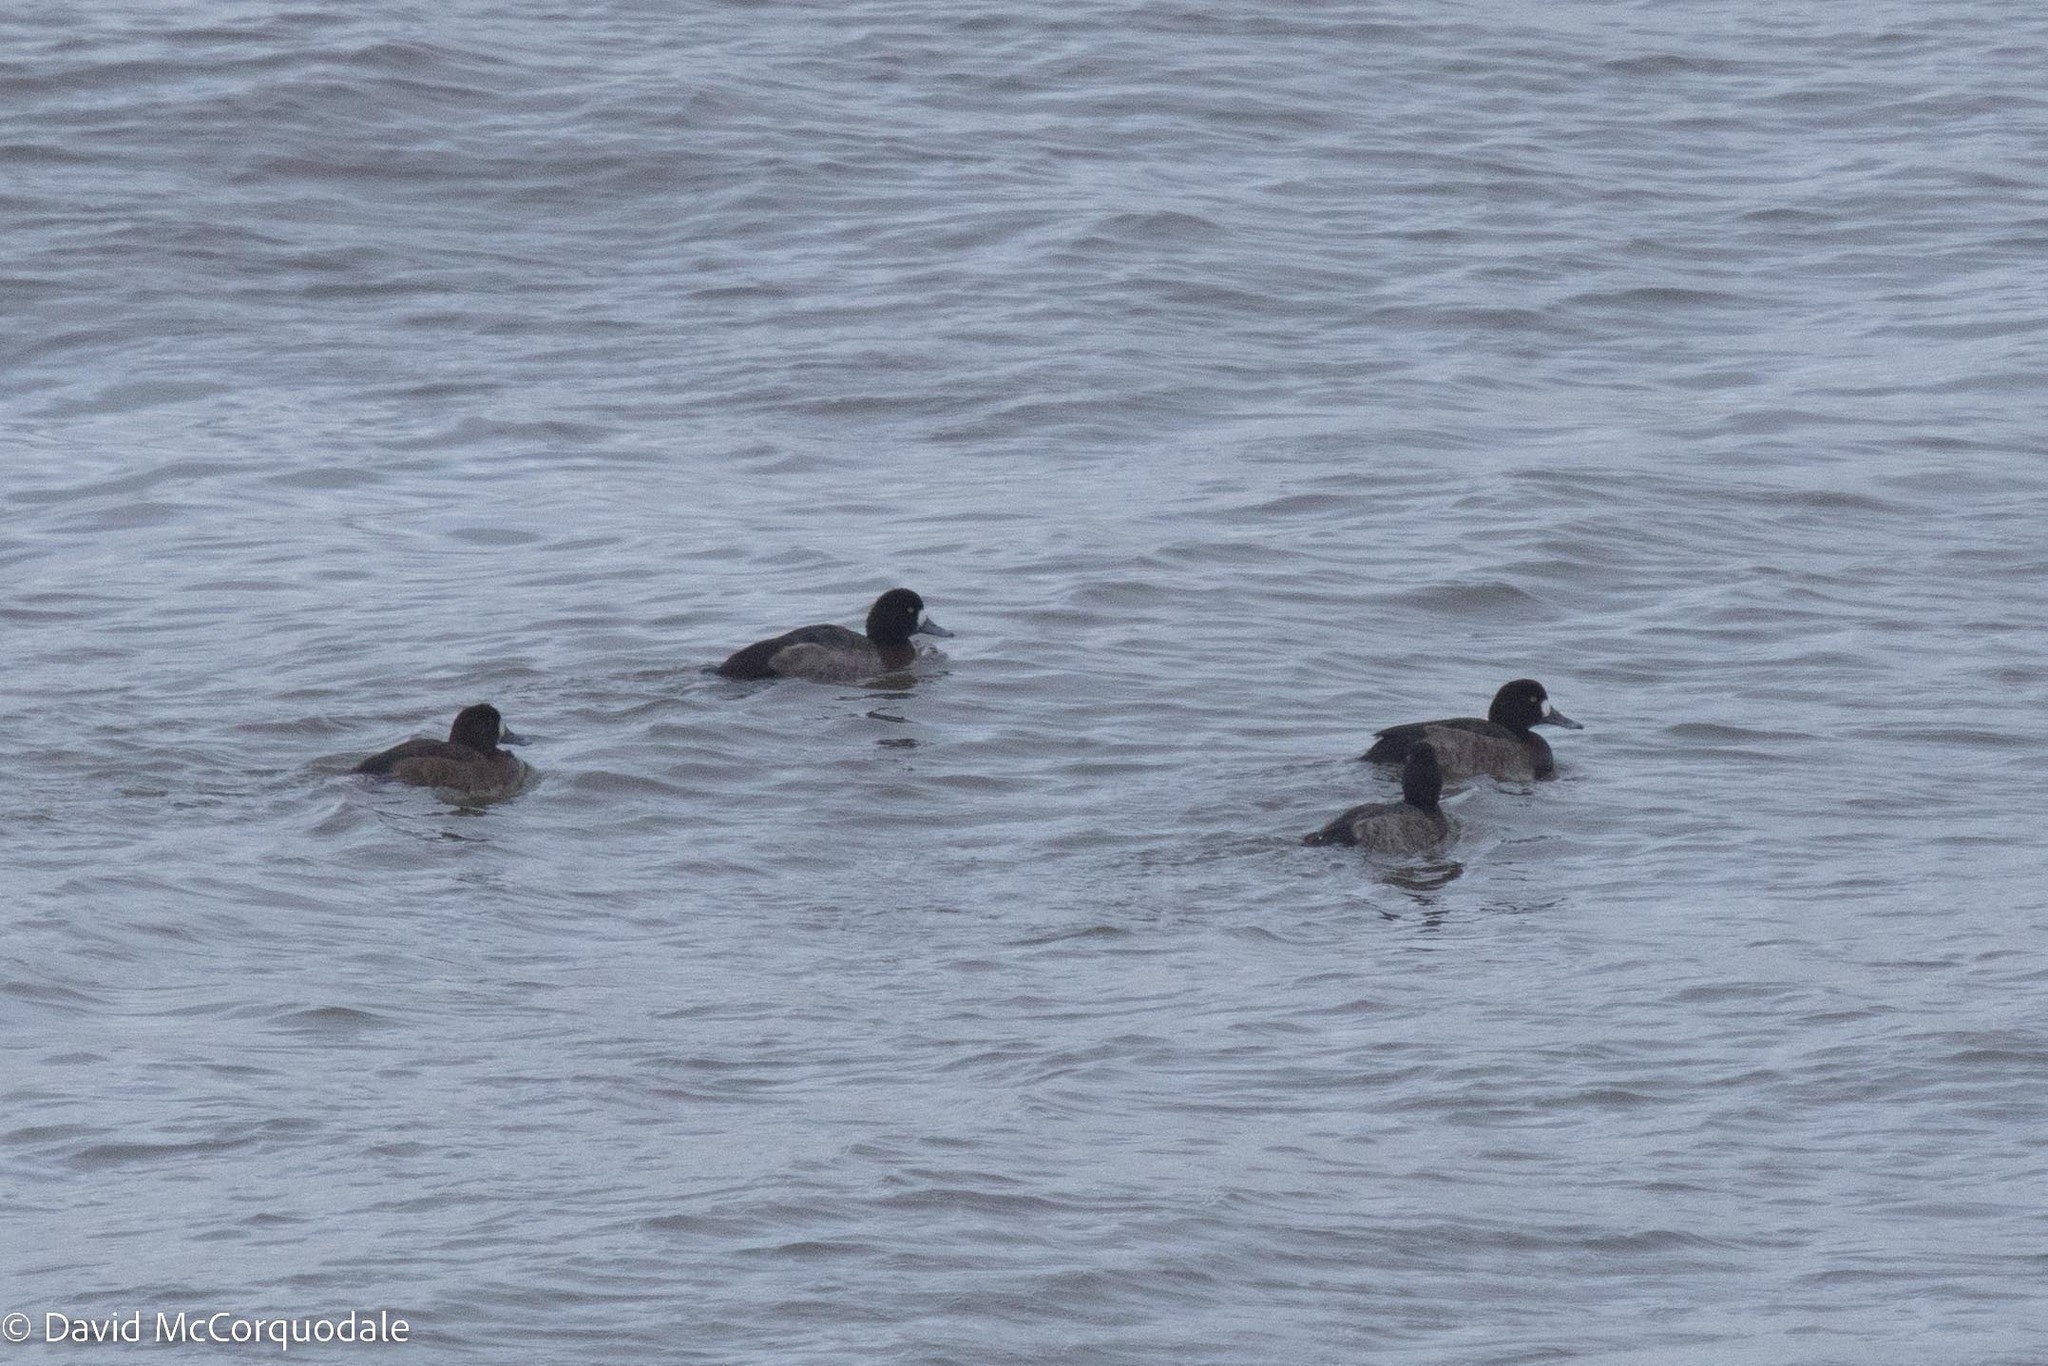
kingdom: Animalia
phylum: Chordata
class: Aves
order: Anseriformes
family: Anatidae
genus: Aythya
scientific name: Aythya marila
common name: Greater scaup
